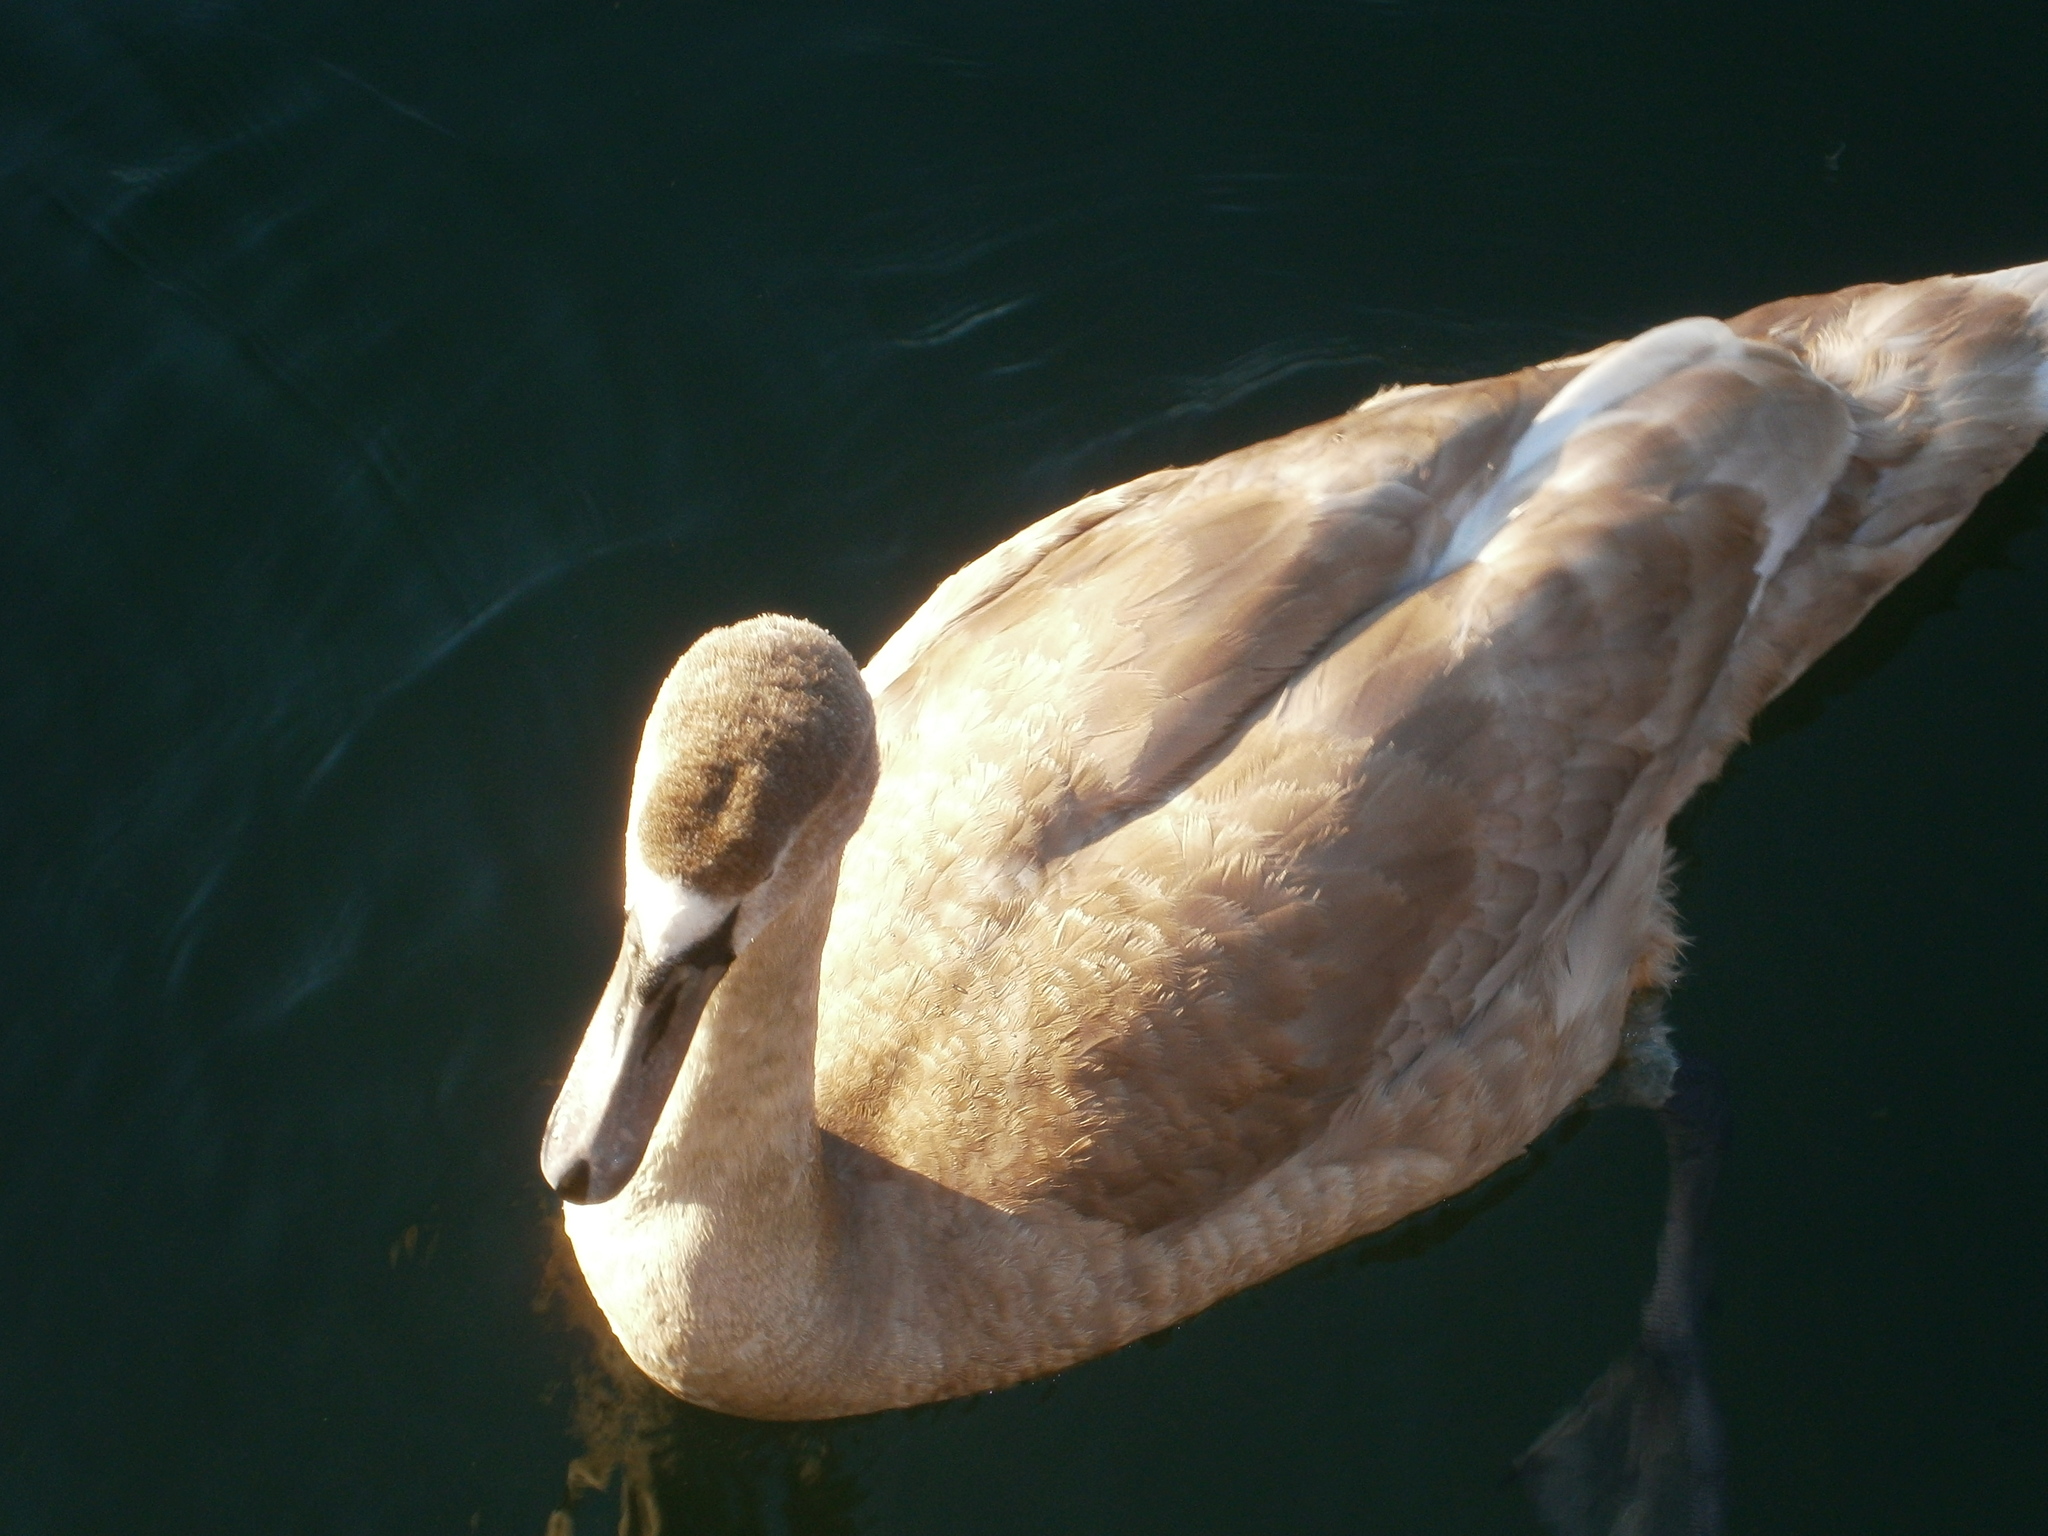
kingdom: Animalia
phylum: Chordata
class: Aves
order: Anseriformes
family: Anatidae
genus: Cygnus
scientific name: Cygnus olor
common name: Mute swan
